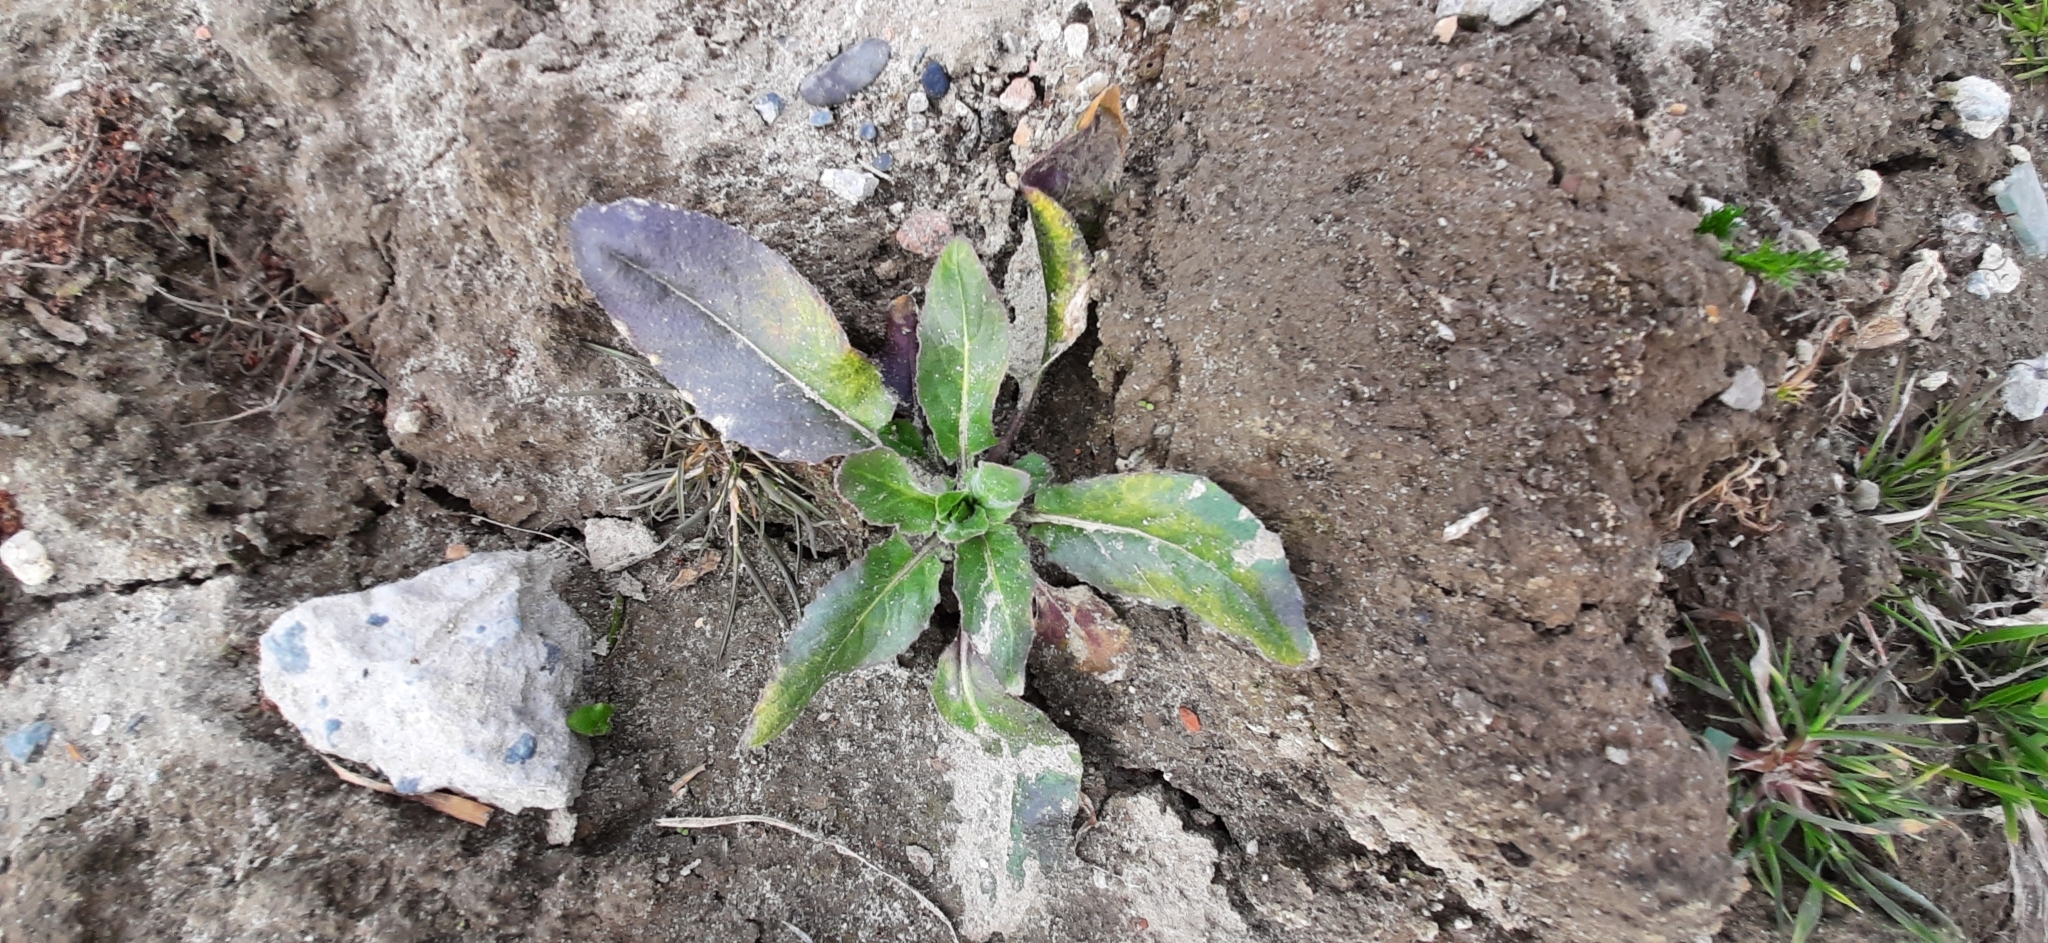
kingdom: Plantae
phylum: Tracheophyta
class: Magnoliopsida
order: Brassicales
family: Brassicaceae
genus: Hesperis
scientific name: Hesperis matronalis
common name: Dame's-violet
